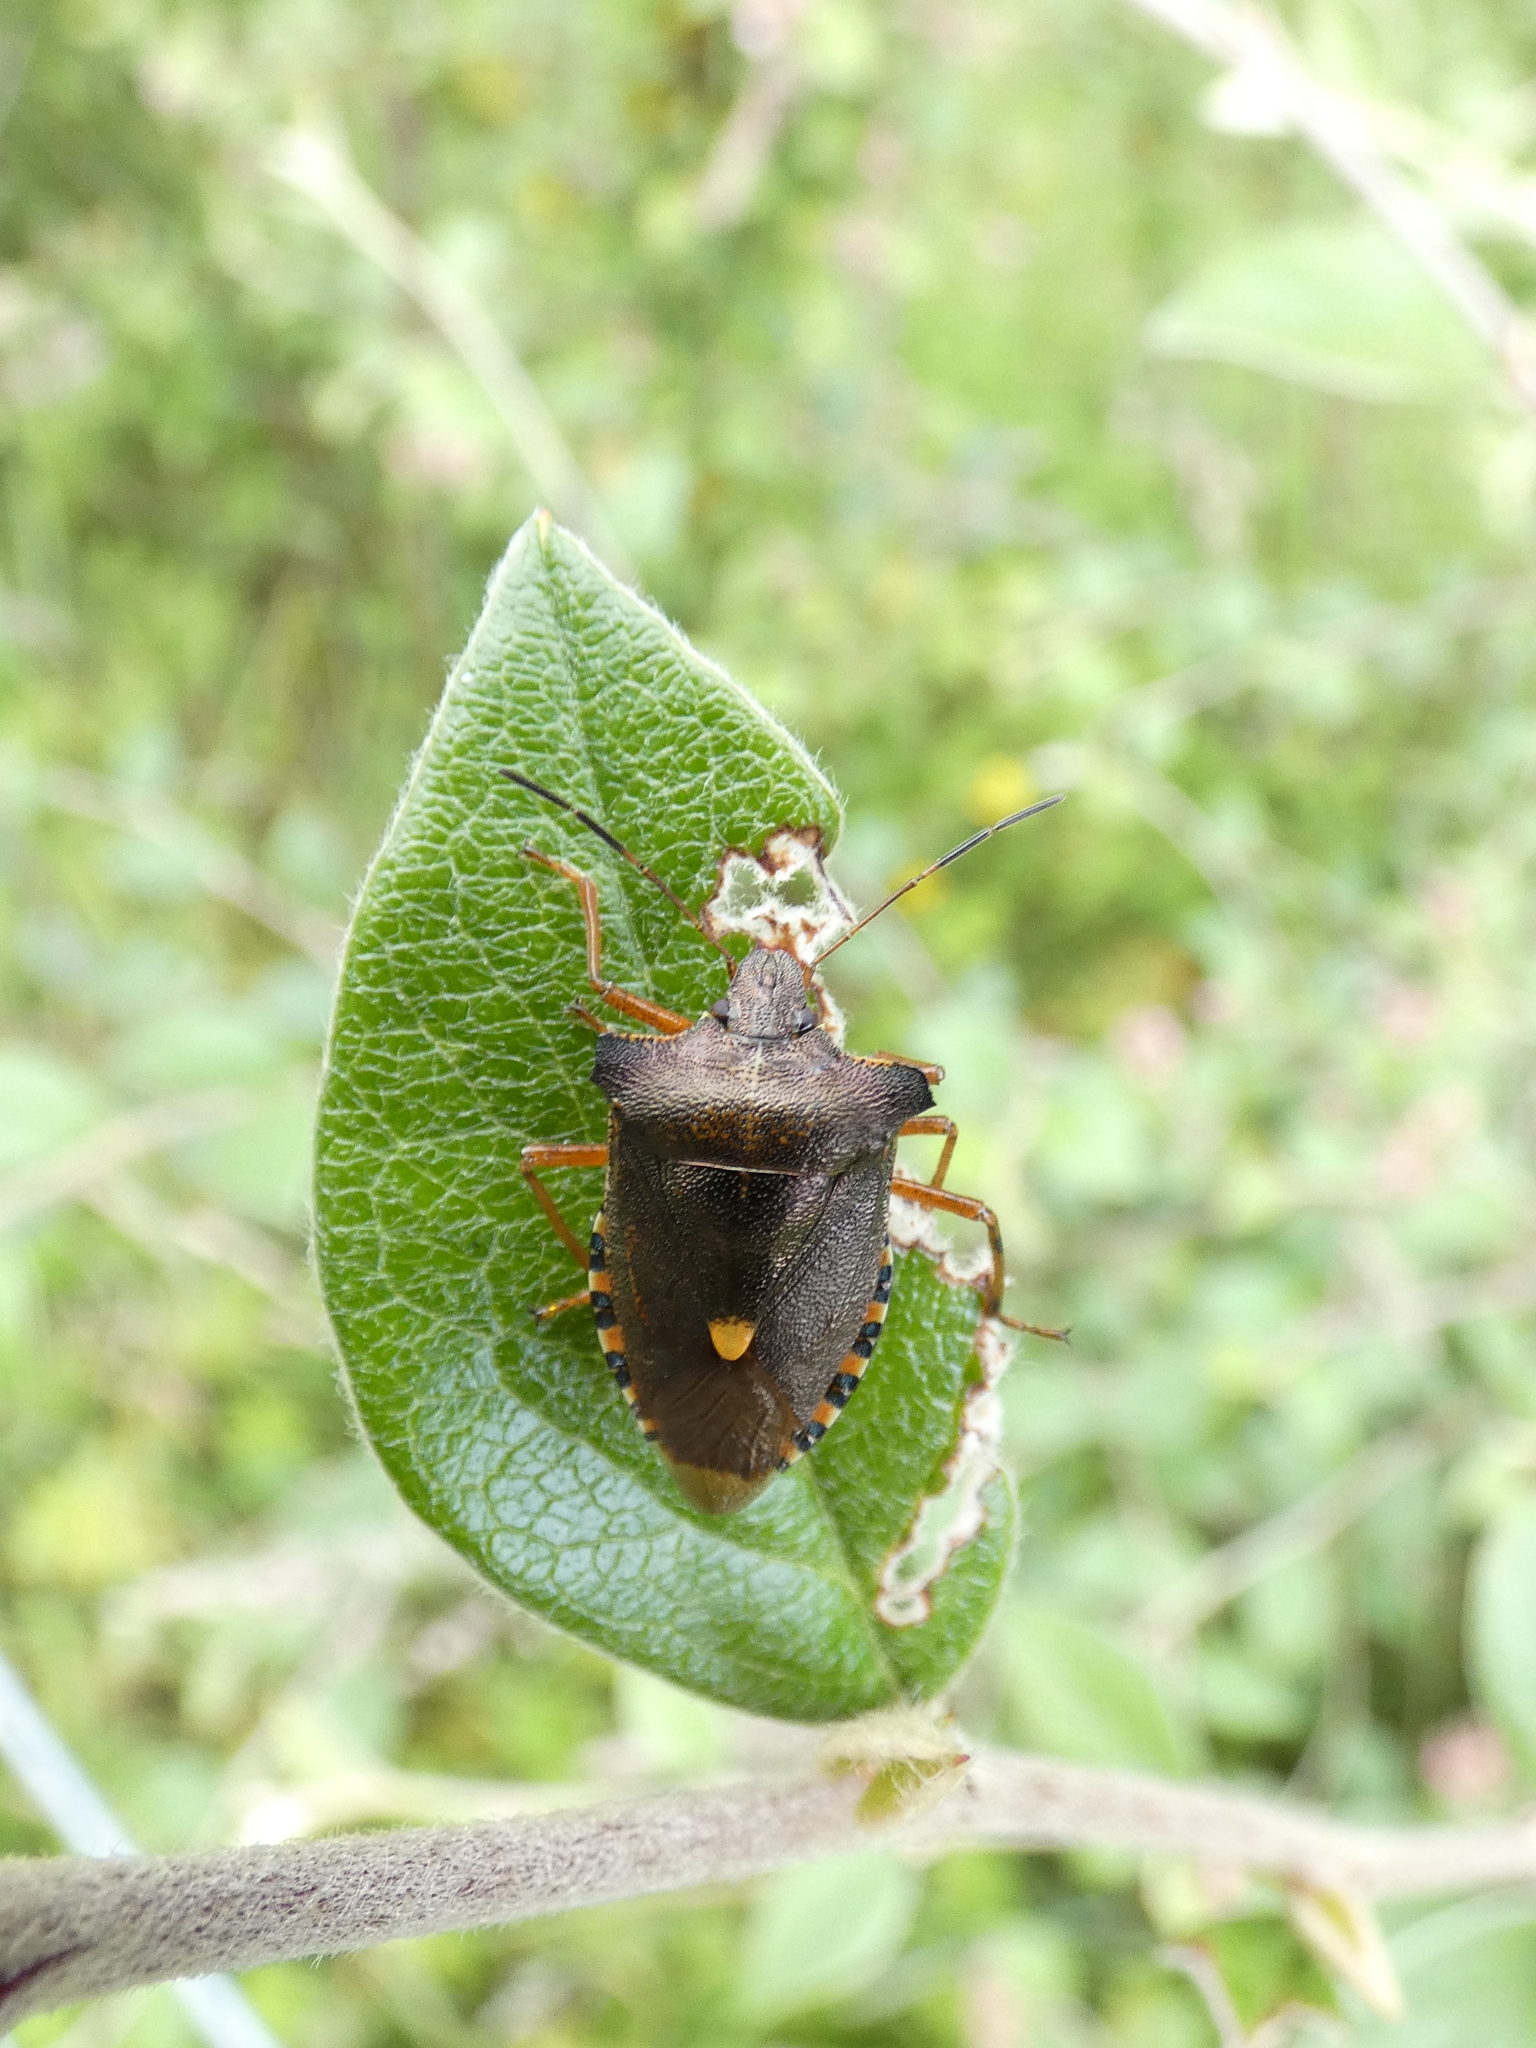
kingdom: Animalia
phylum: Arthropoda
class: Insecta
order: Hemiptera
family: Pentatomidae
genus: Pentatoma
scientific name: Pentatoma rufipes
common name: Forest bug
